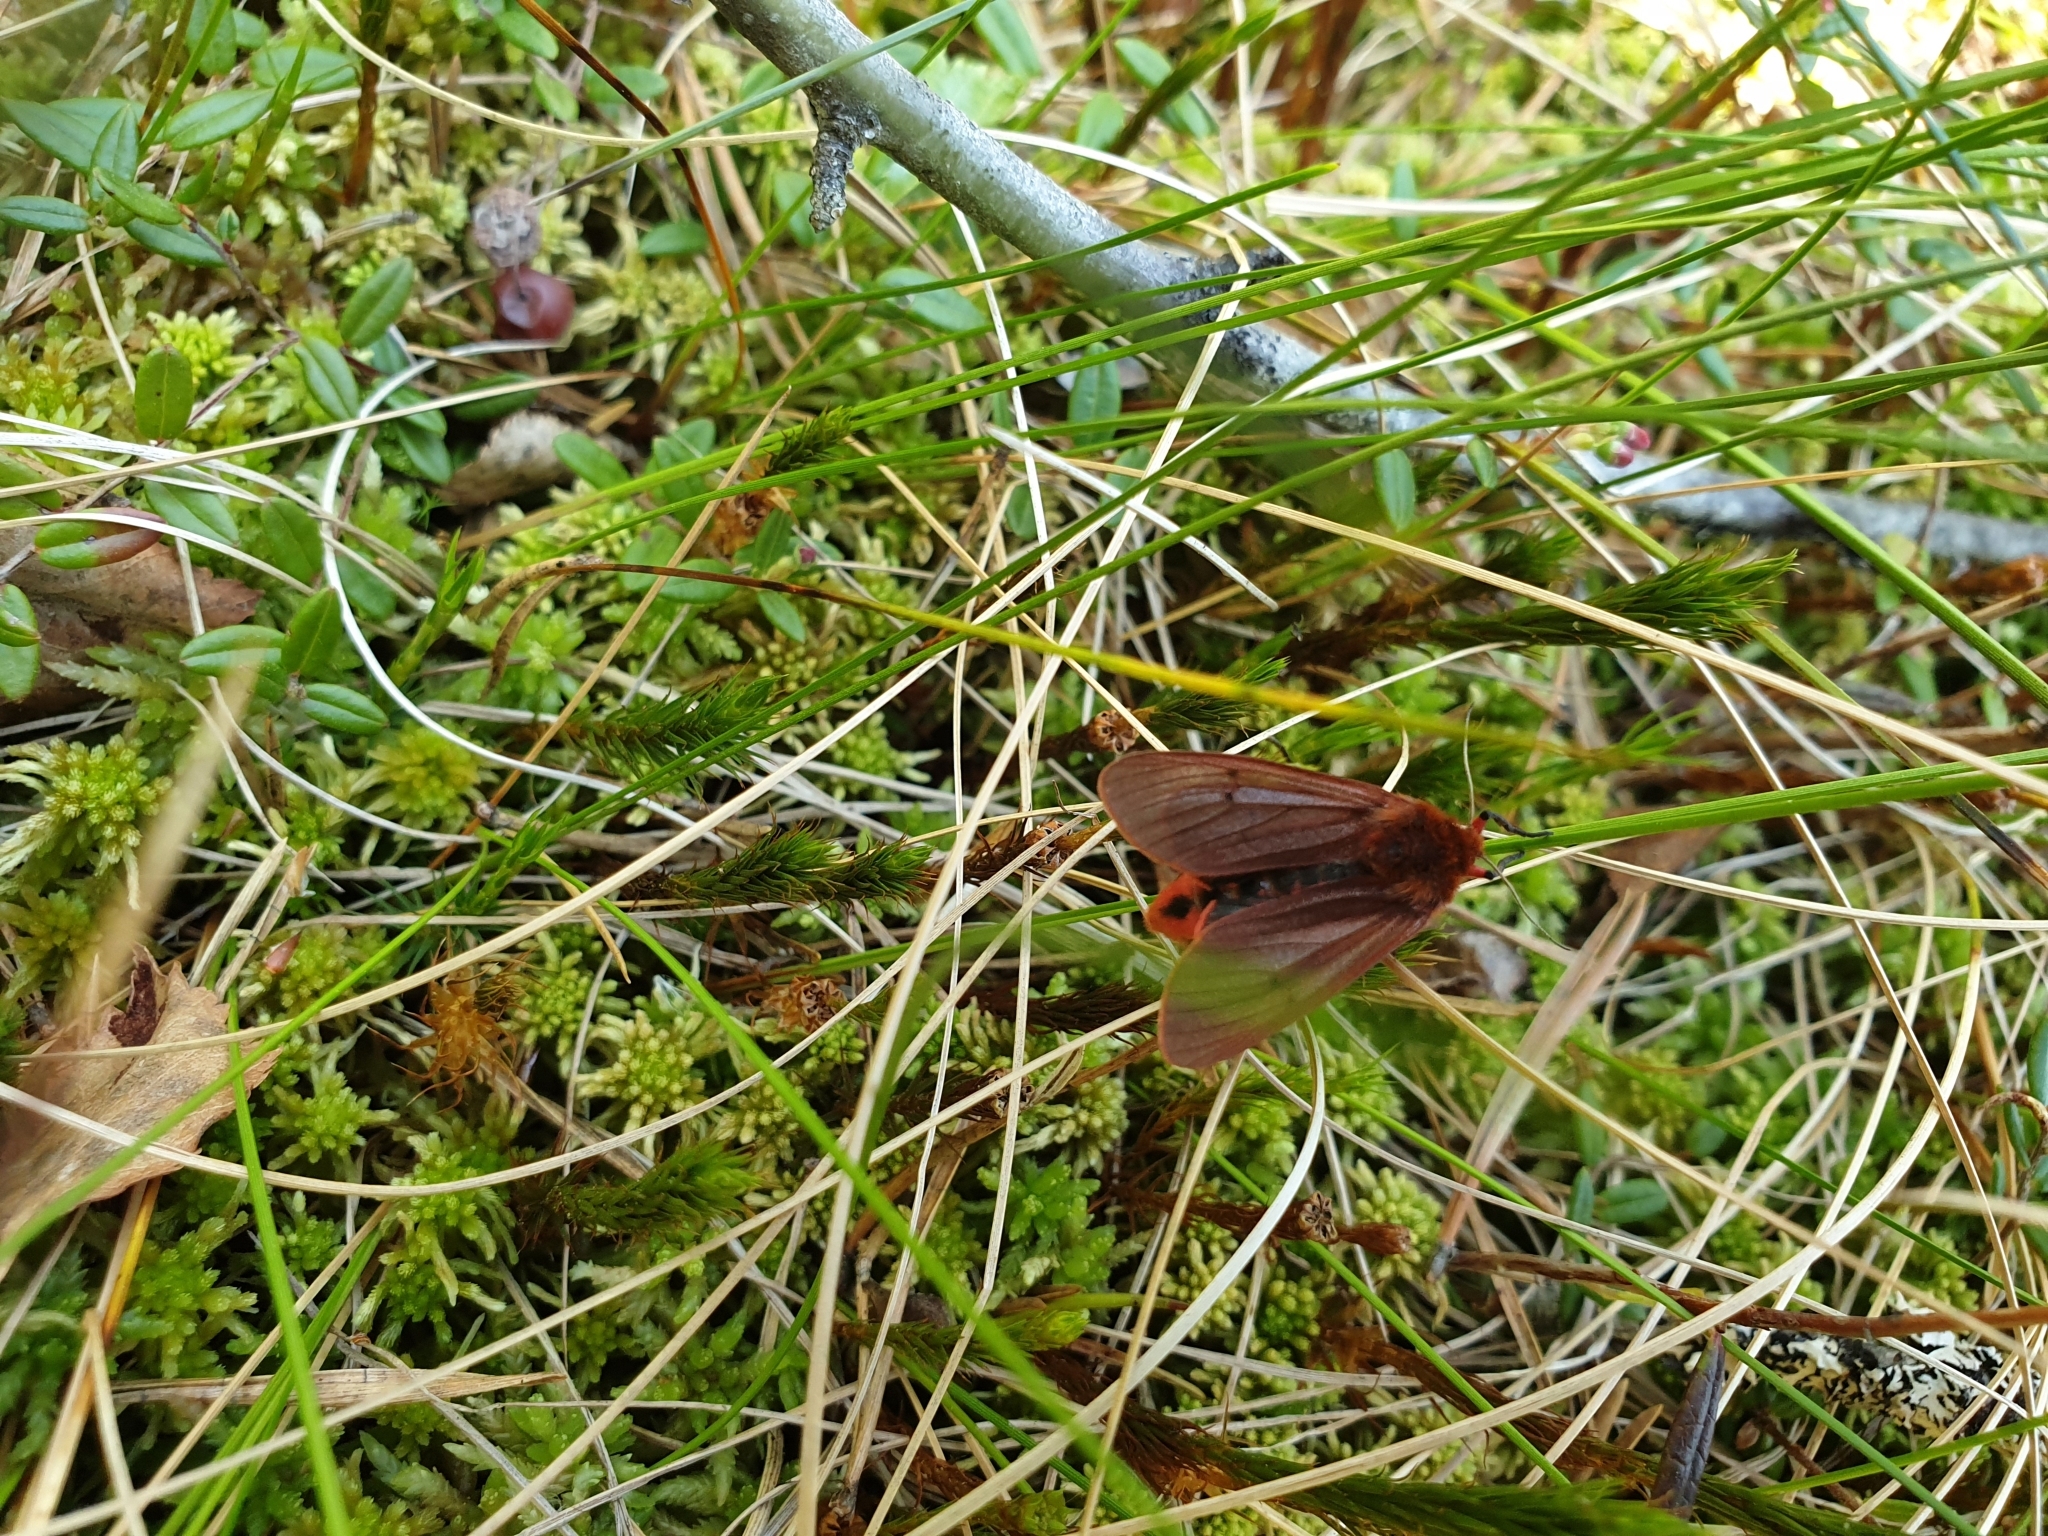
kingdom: Animalia
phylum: Arthropoda
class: Insecta
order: Lepidoptera
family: Erebidae
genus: Phragmatobia
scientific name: Phragmatobia fuliginosa
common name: Ruby tiger
